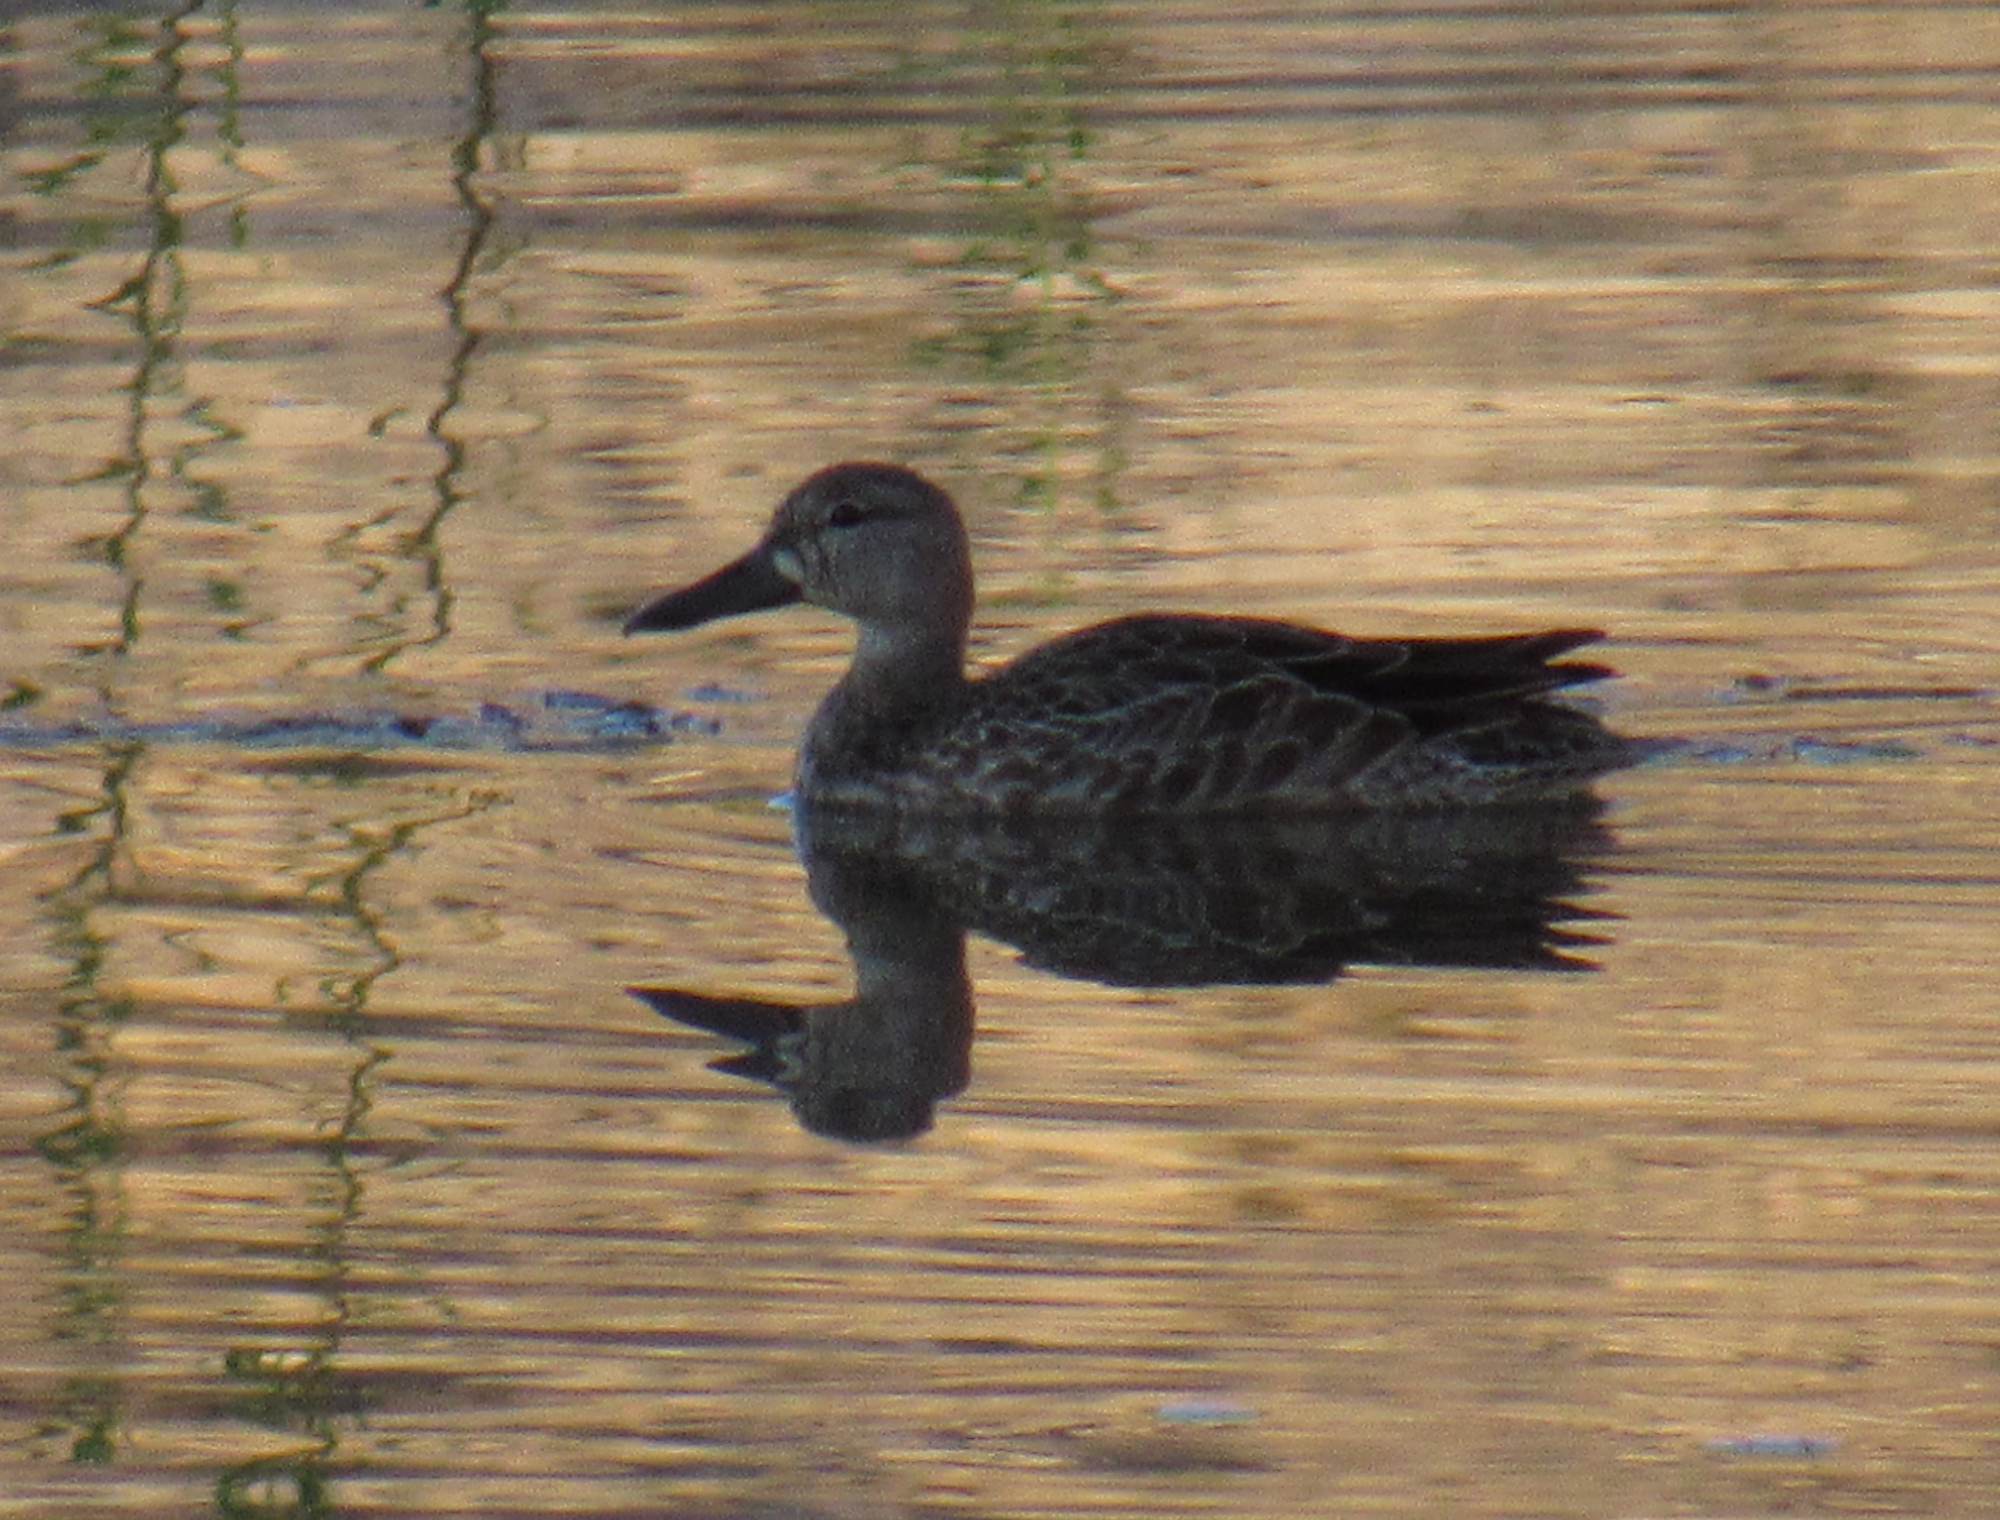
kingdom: Animalia
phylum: Chordata
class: Aves
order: Anseriformes
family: Anatidae
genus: Spatula
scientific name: Spatula discors
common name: Blue-winged teal
